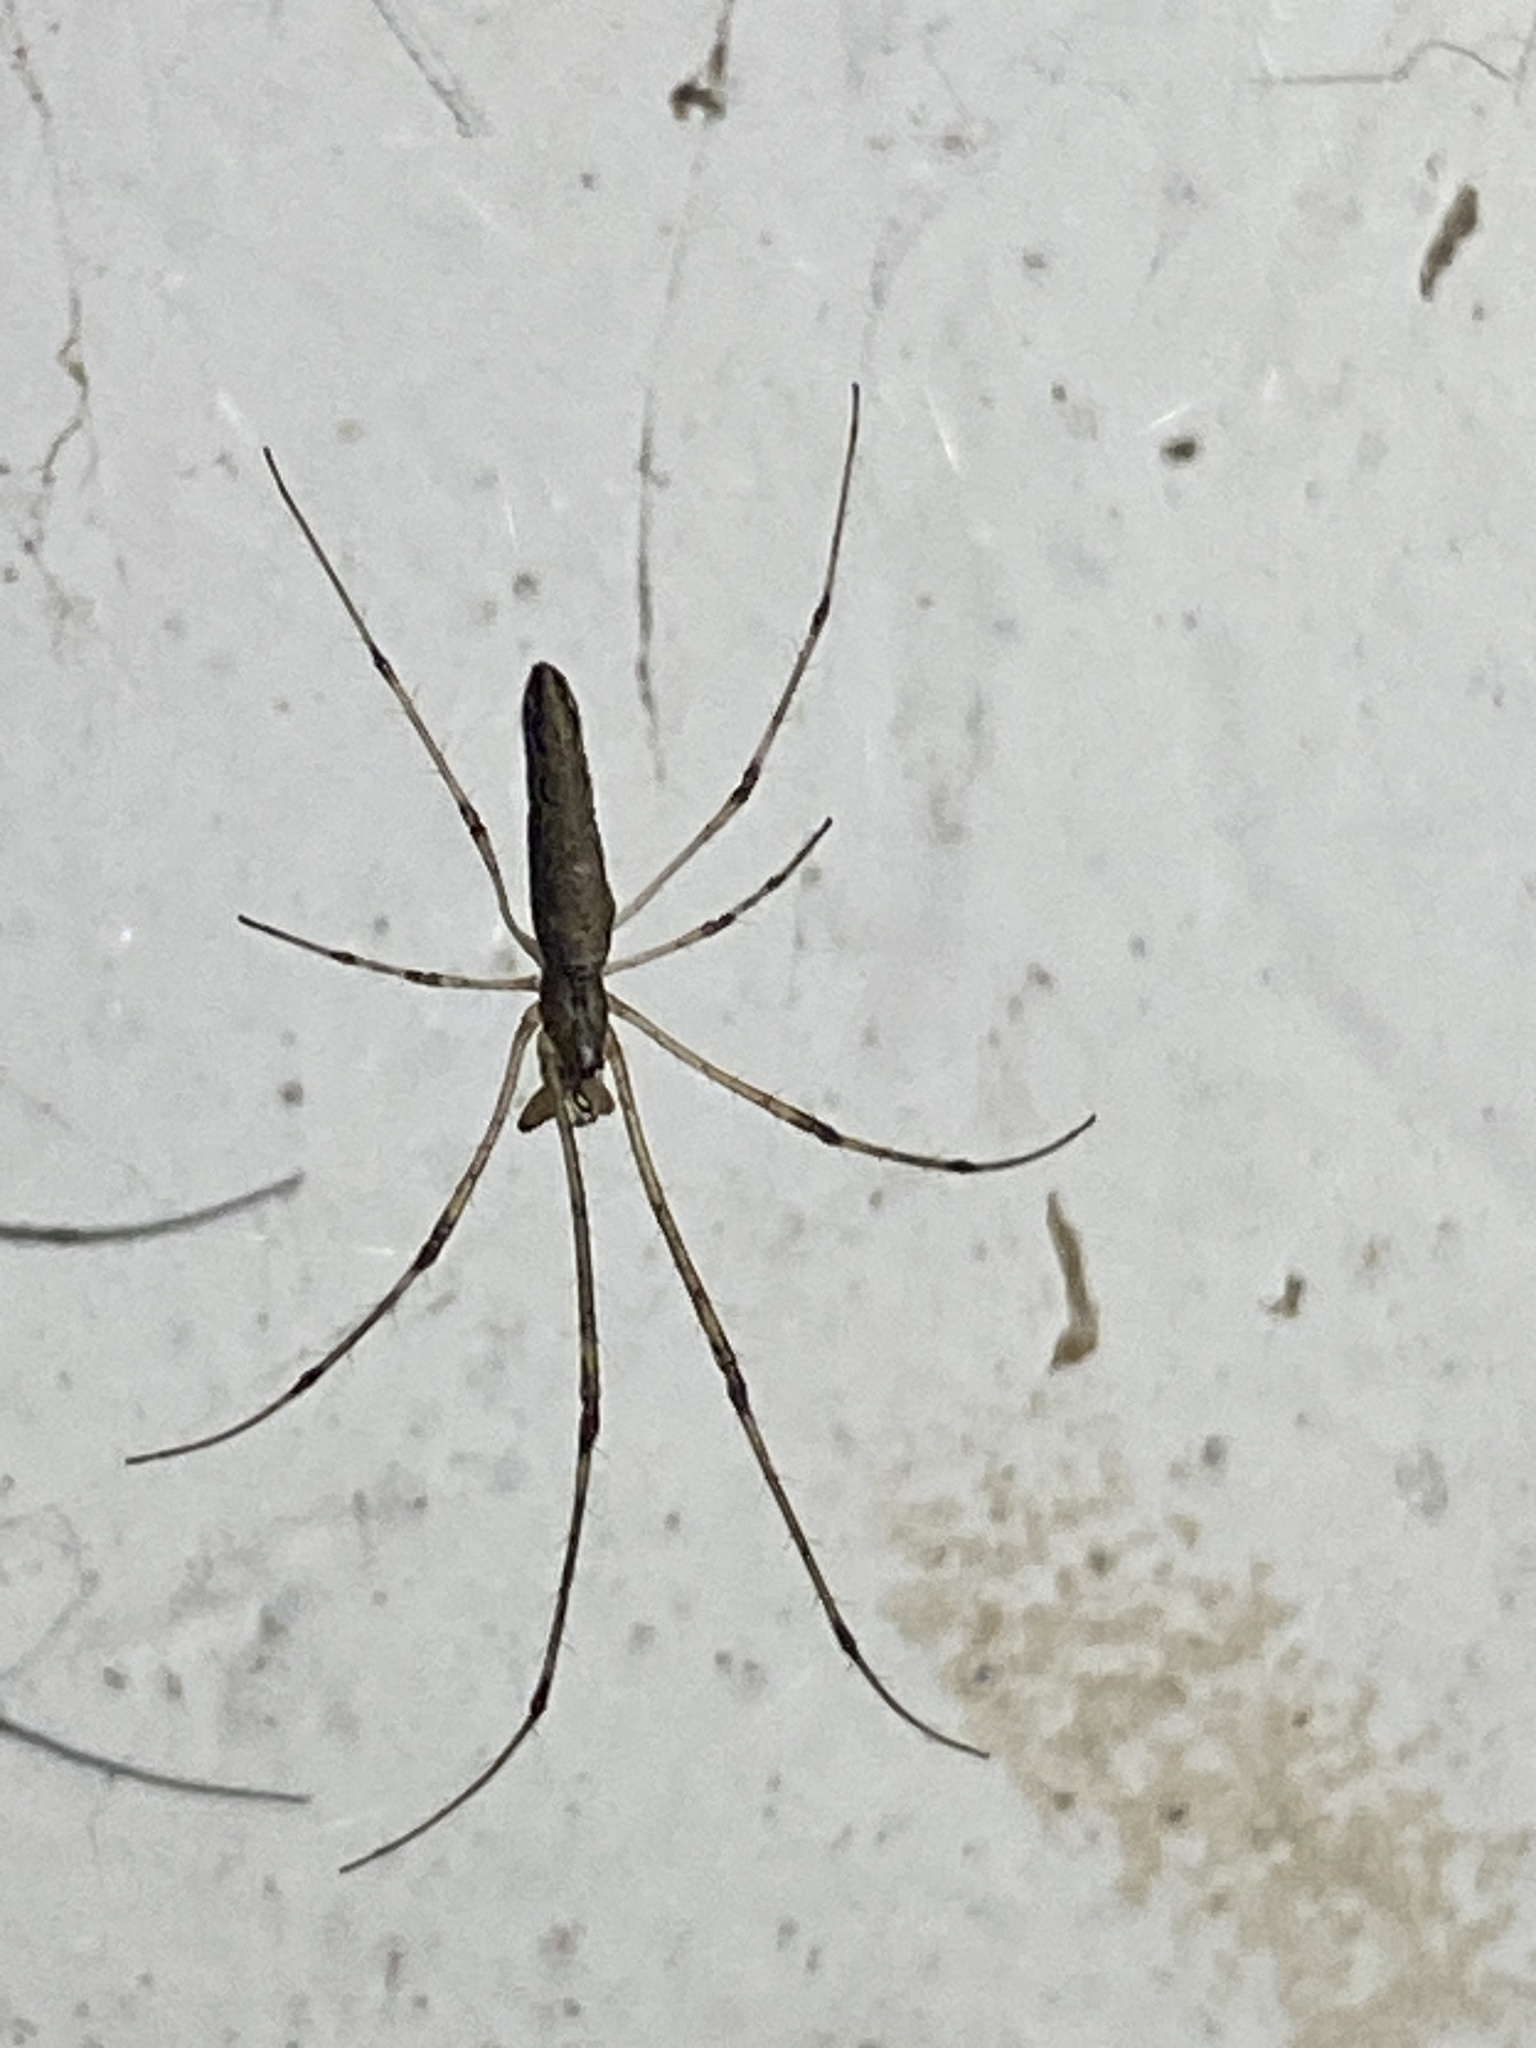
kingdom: Animalia
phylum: Arthropoda
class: Arachnida
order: Araneae
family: Tetragnathidae
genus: Tetragnatha
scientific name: Tetragnatha
